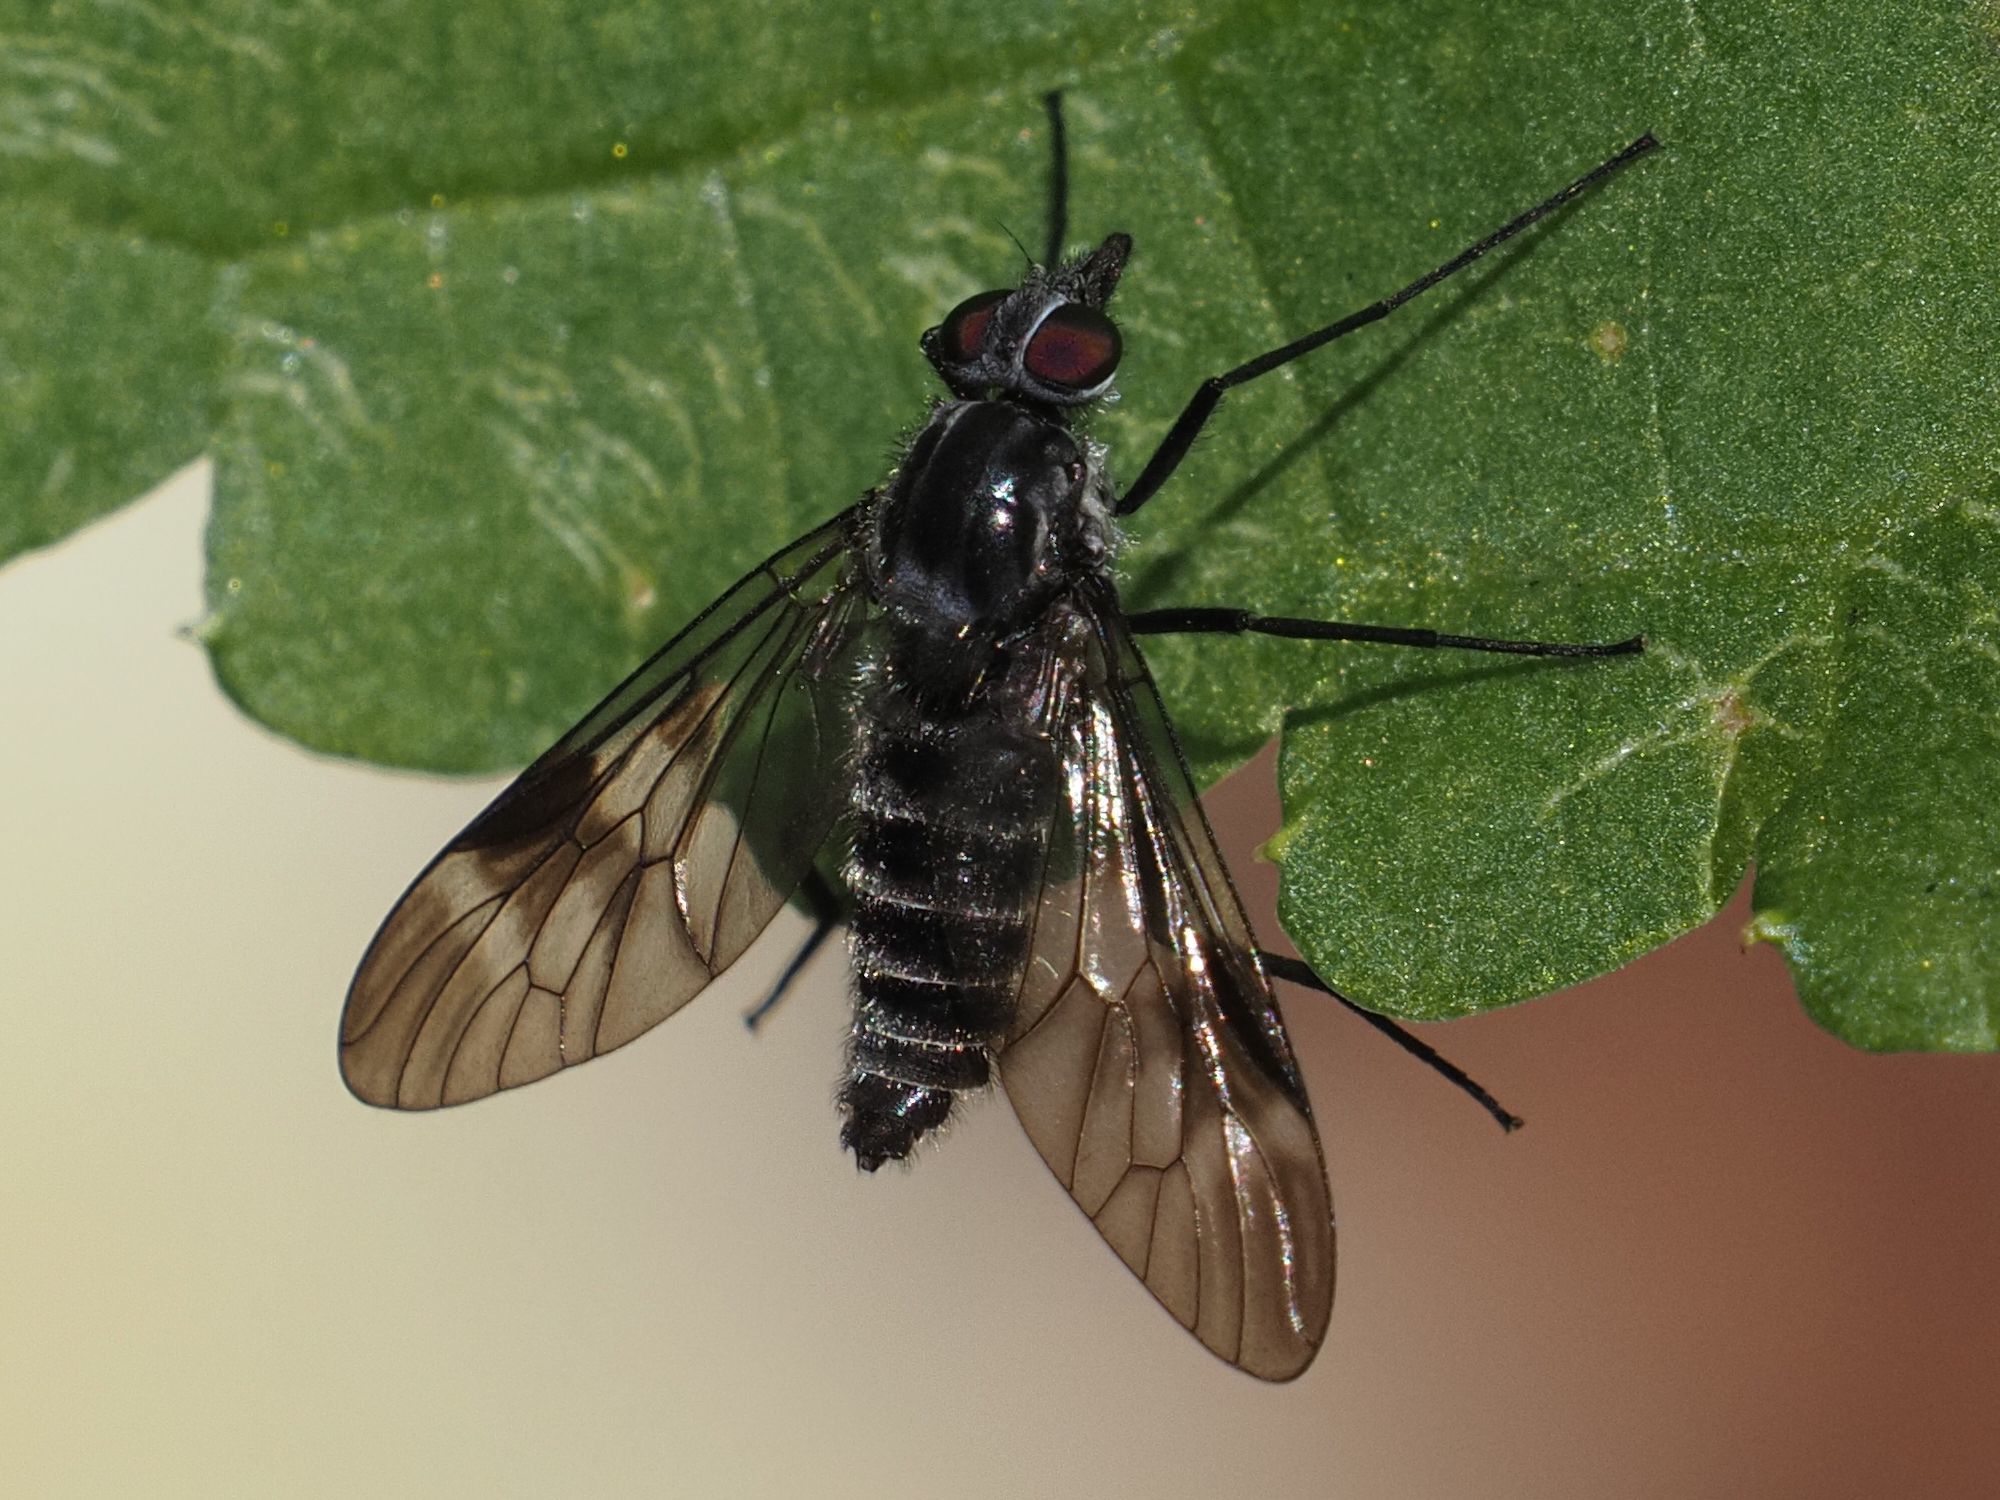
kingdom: Animalia
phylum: Arthropoda
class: Insecta
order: Diptera
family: Athericidae
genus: Atherix
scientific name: Atherix marginata
